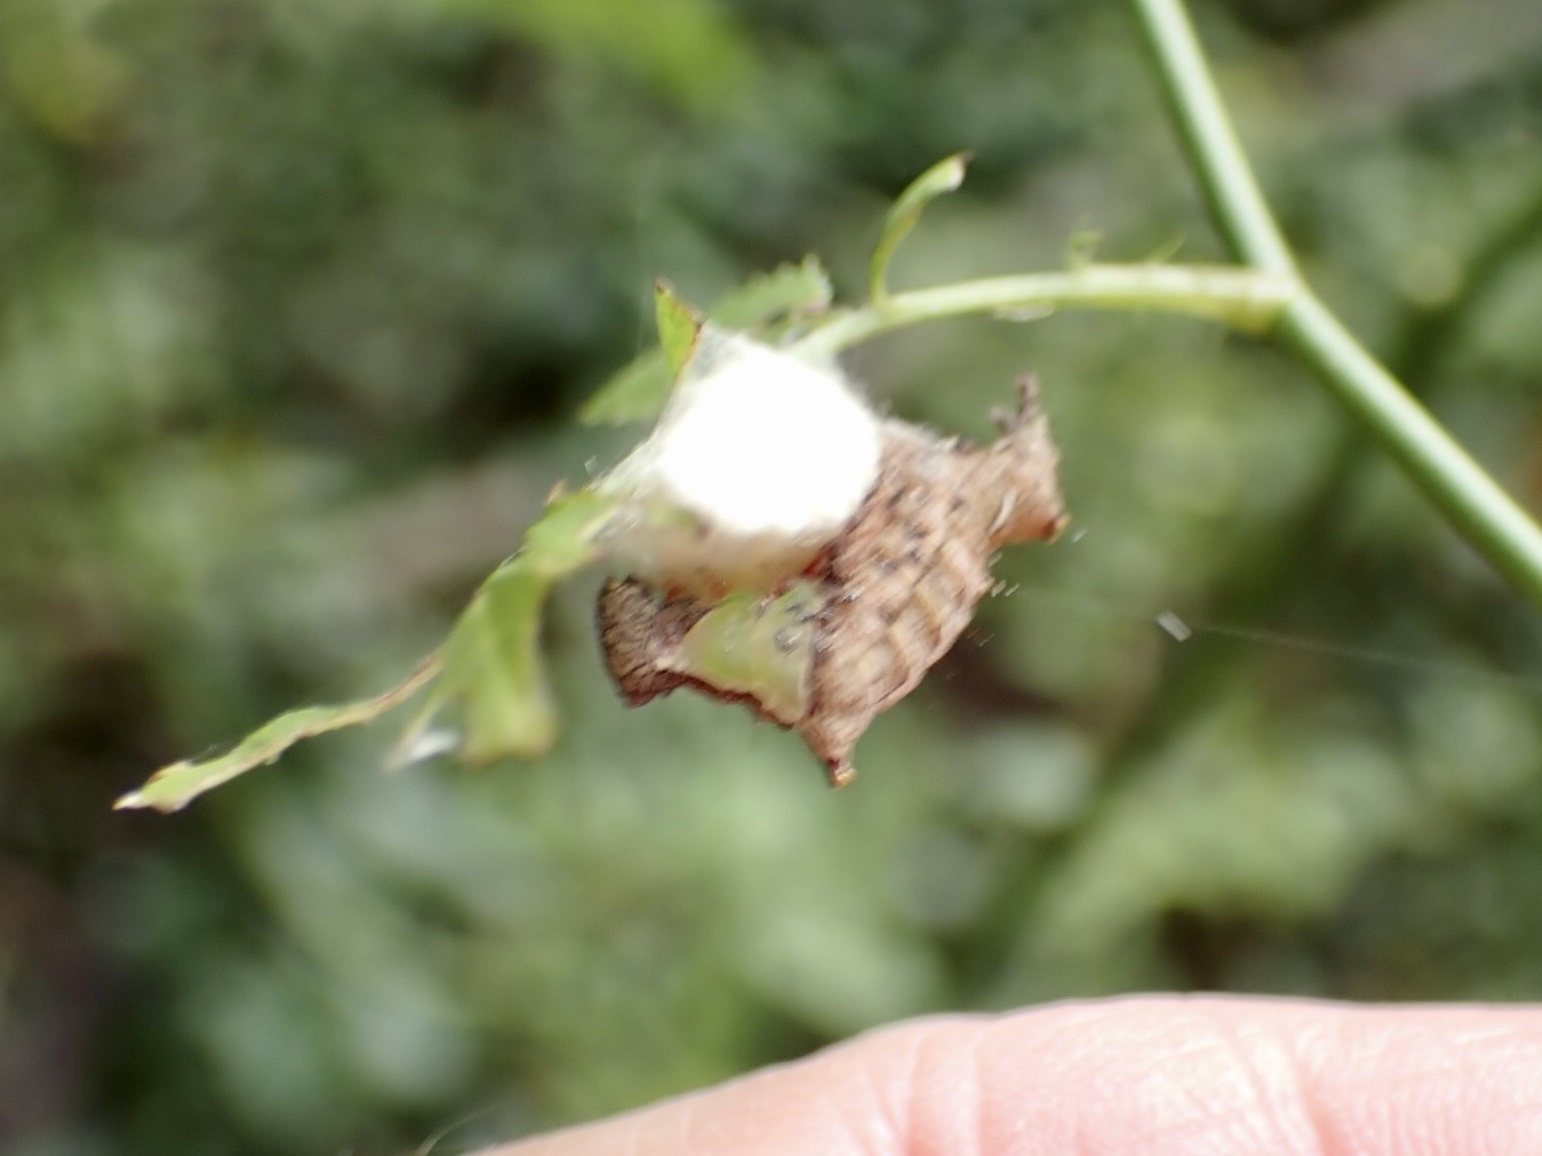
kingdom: Animalia
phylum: Arthropoda
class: Insecta
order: Lepidoptera
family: Notodontidae
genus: Schizura
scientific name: Schizura
